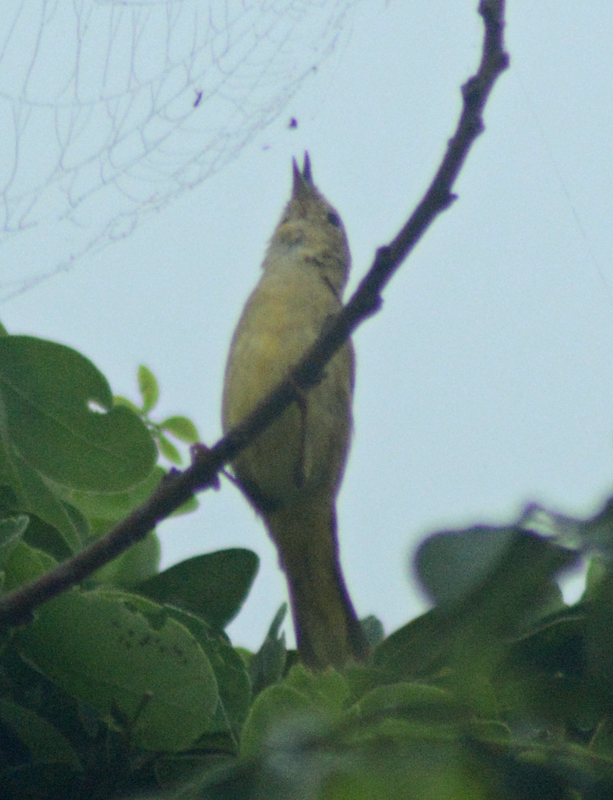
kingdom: Animalia
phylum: Chordata
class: Aves
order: Passeriformes
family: Parulidae
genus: Setophaga
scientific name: Setophaga petechia
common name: Yellow warbler
